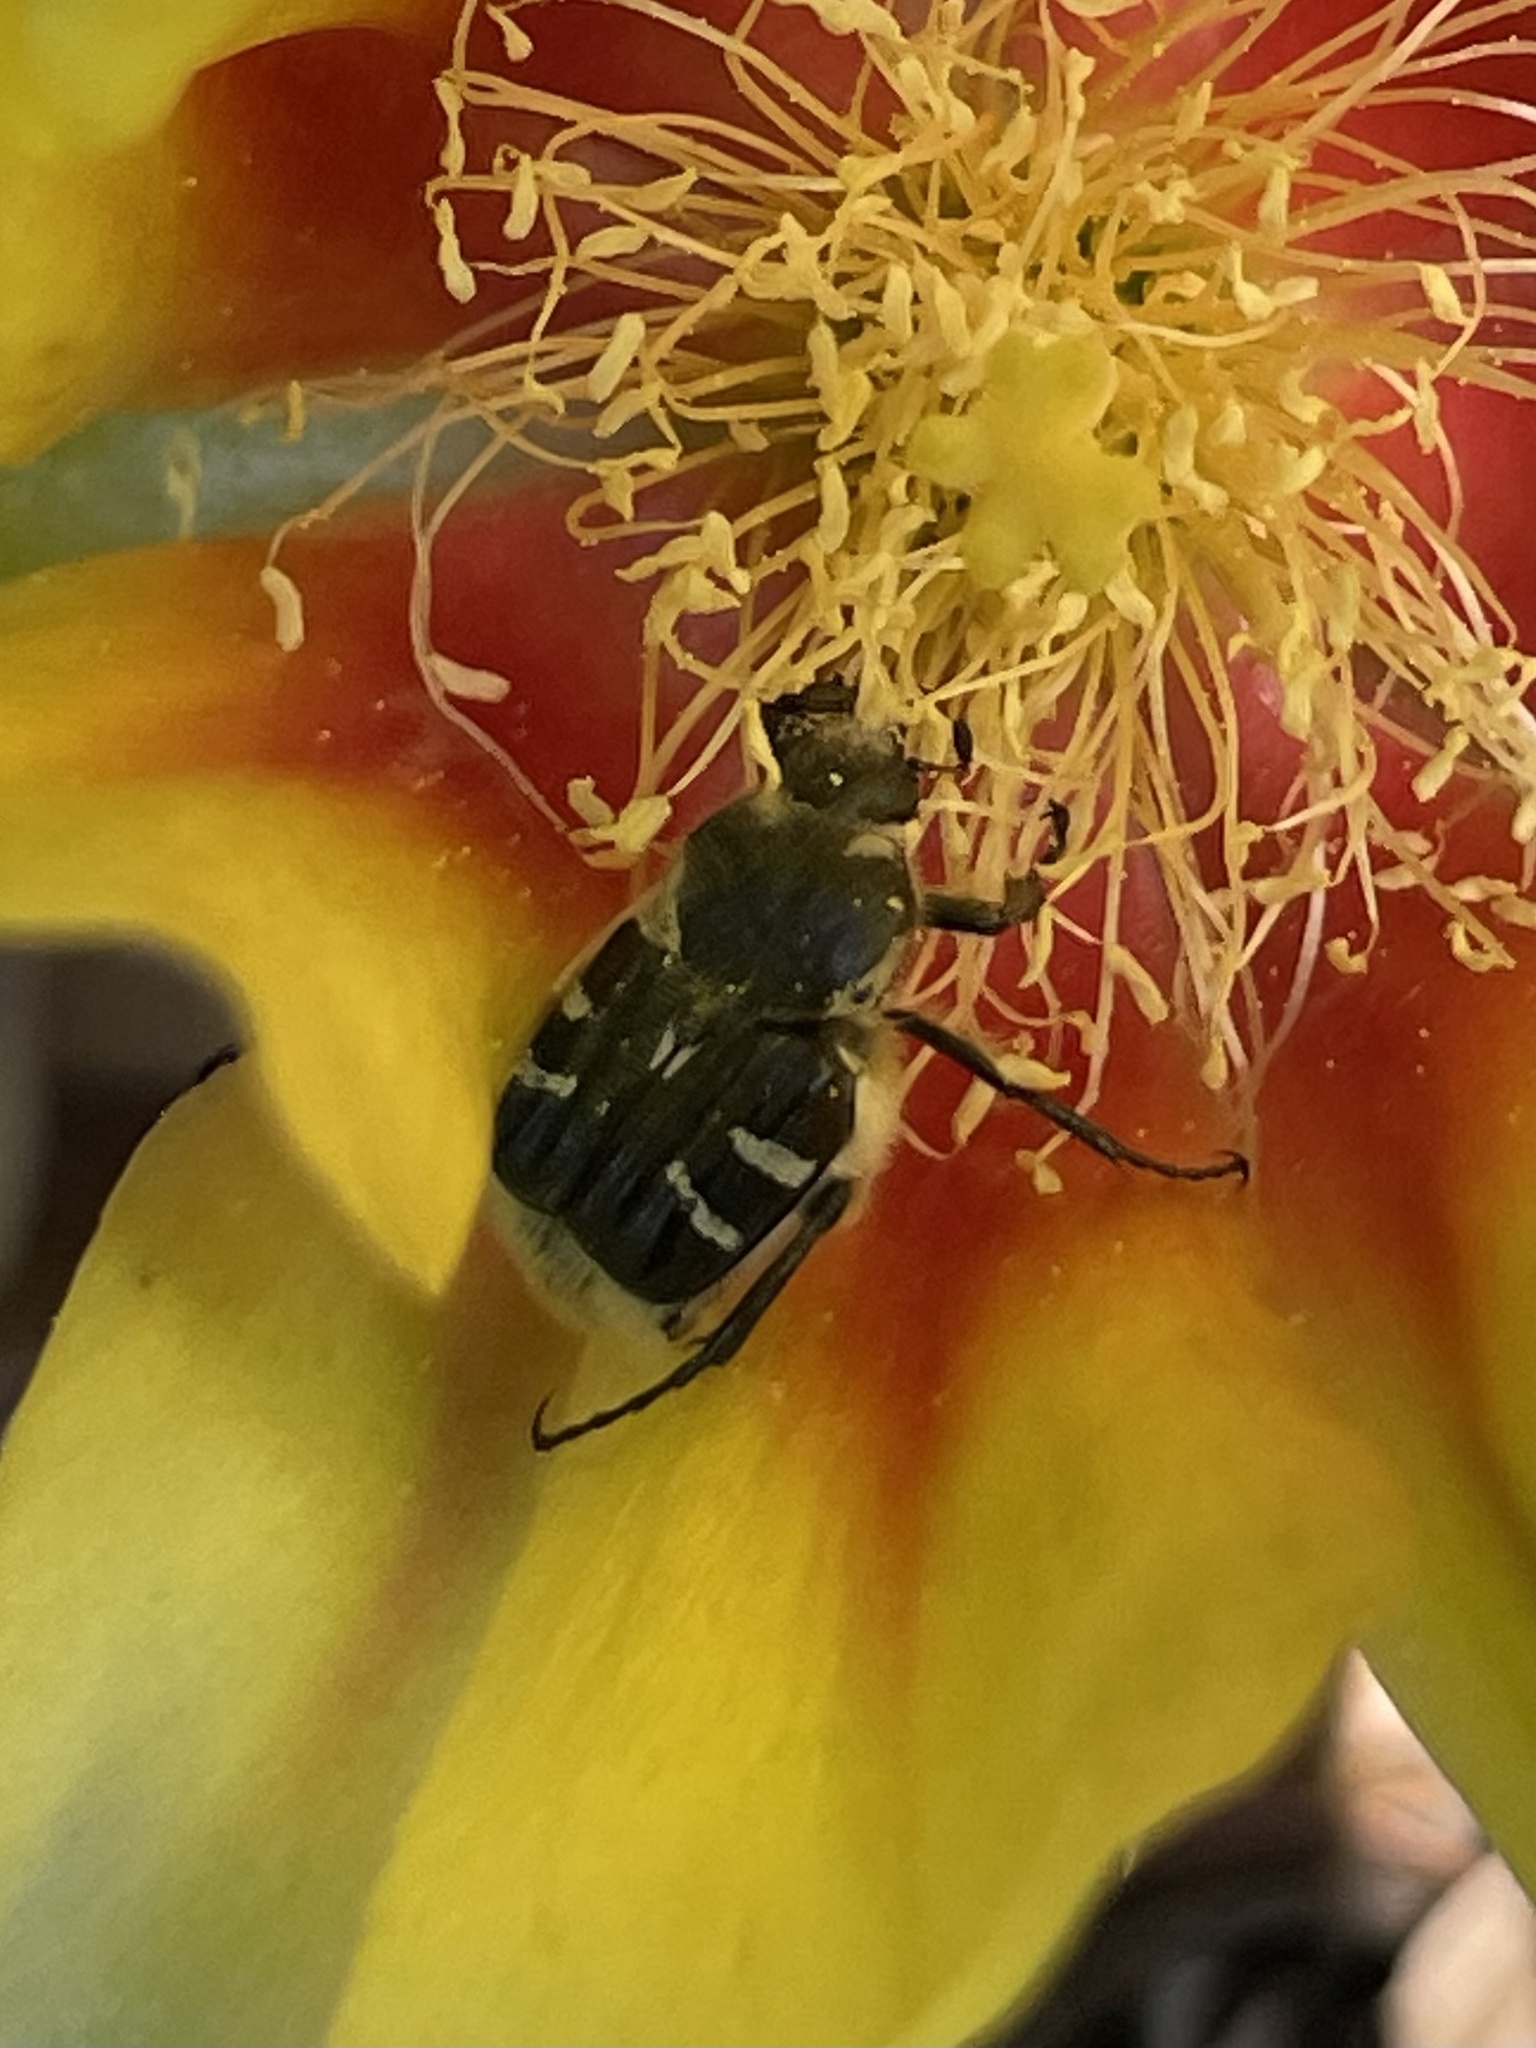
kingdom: Animalia
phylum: Arthropoda
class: Insecta
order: Coleoptera
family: Scarabaeidae
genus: Trichiotinus
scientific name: Trichiotinus texanus
